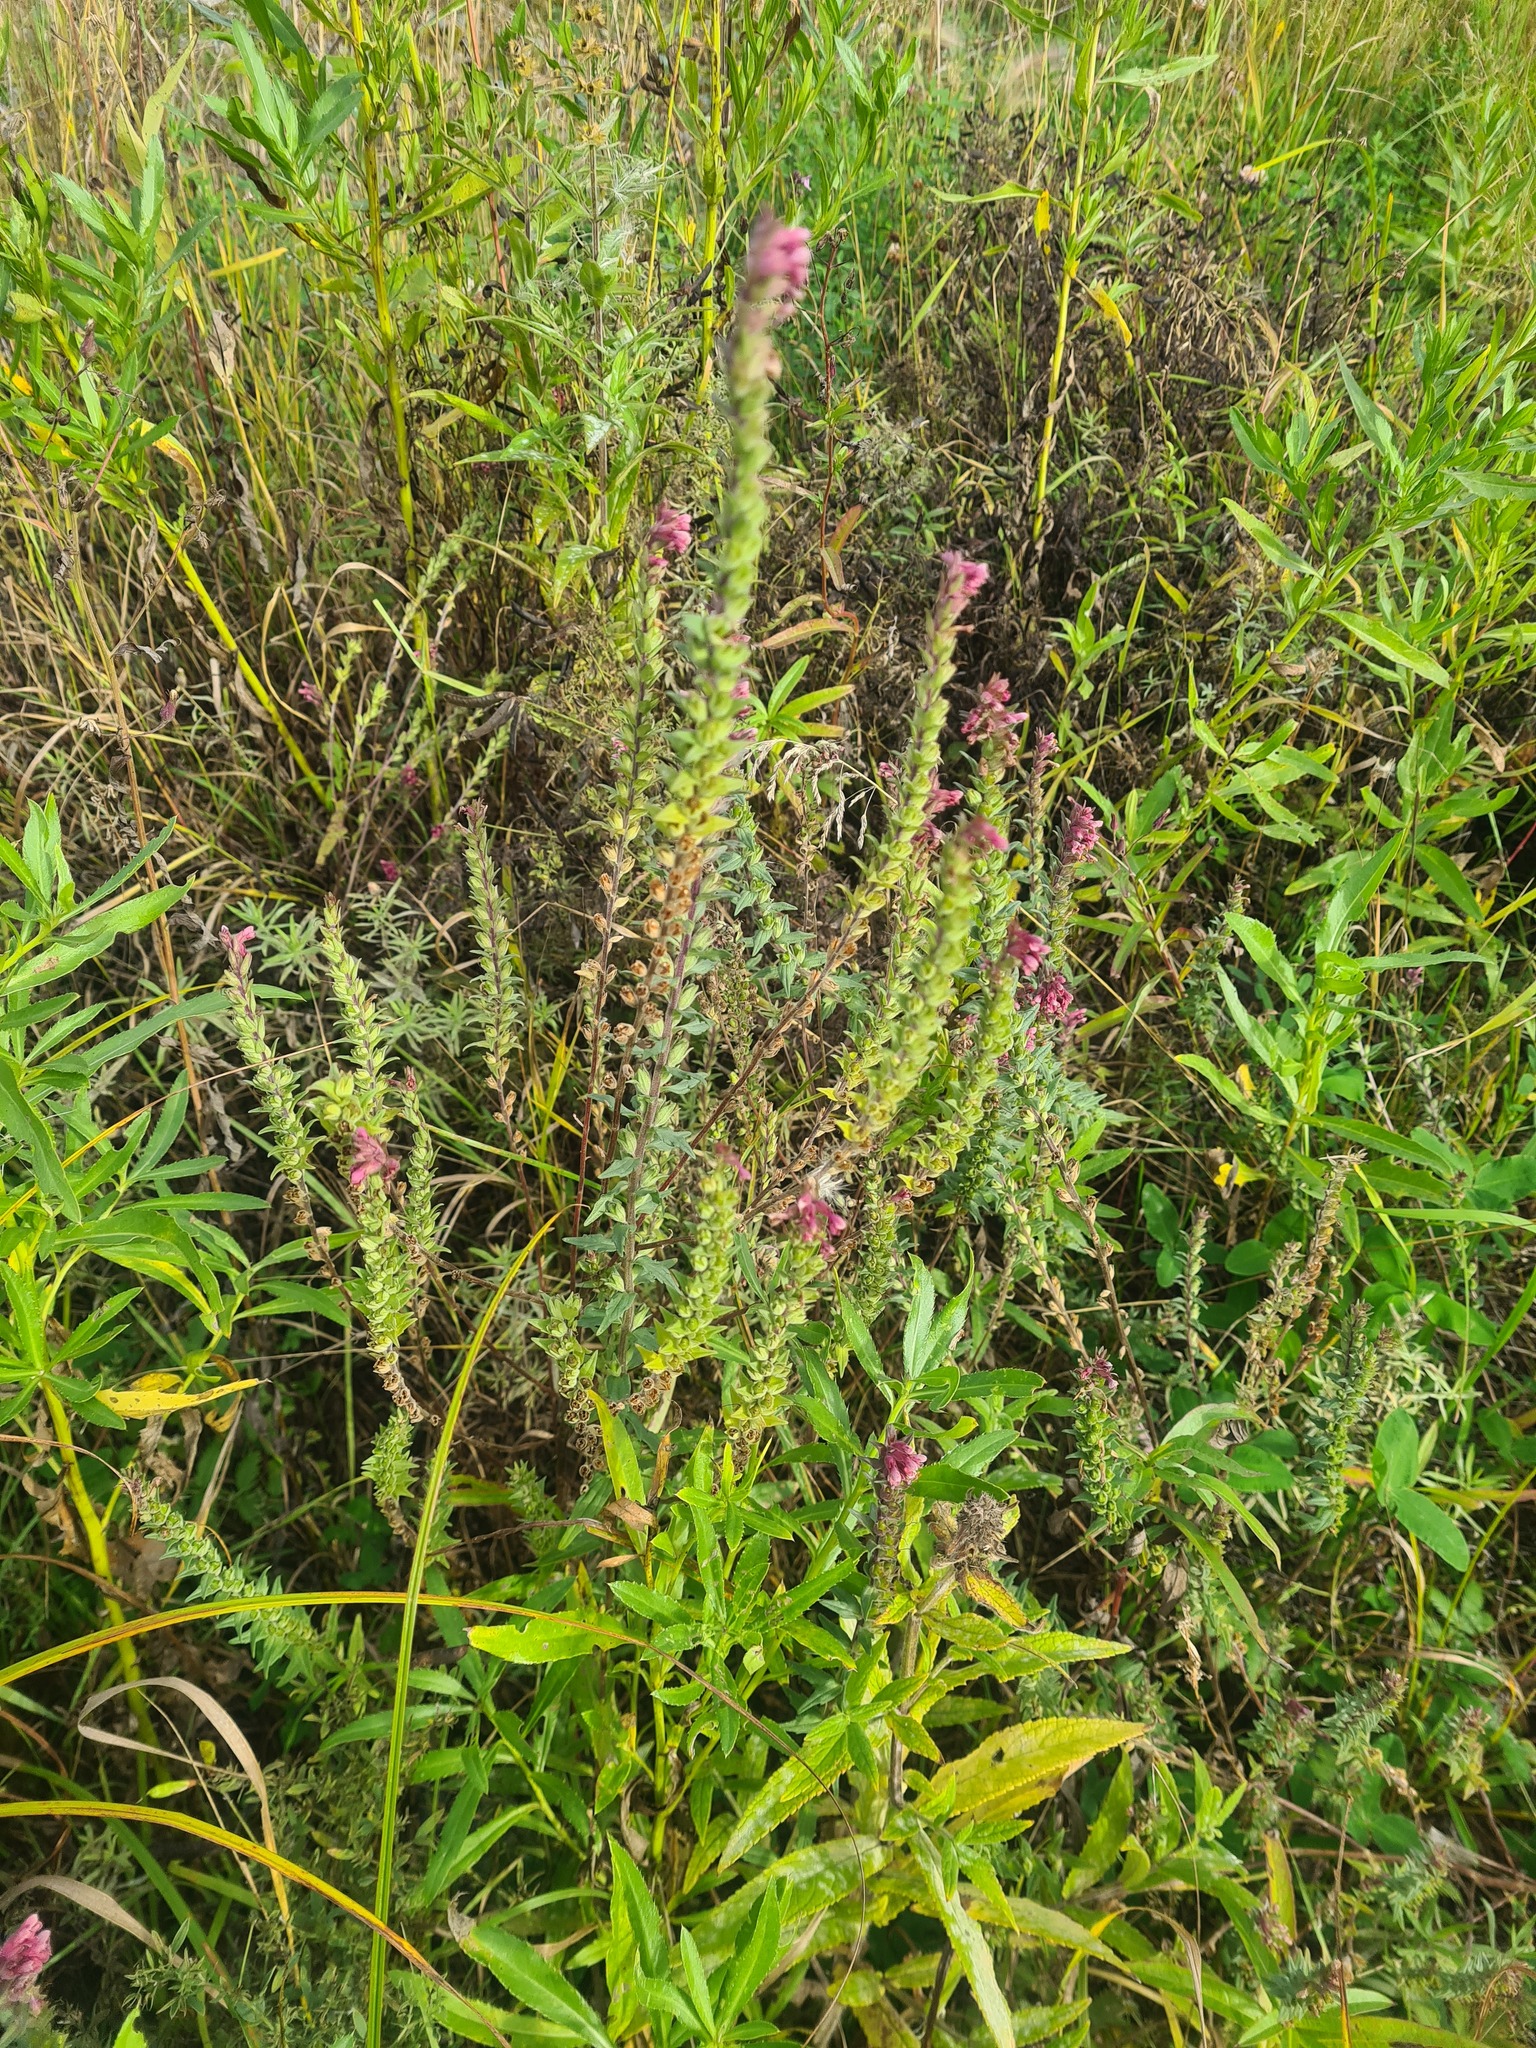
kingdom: Plantae
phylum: Tracheophyta
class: Magnoliopsida
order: Lamiales
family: Orobanchaceae
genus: Odontites
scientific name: Odontites vulgaris
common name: Broomrape
